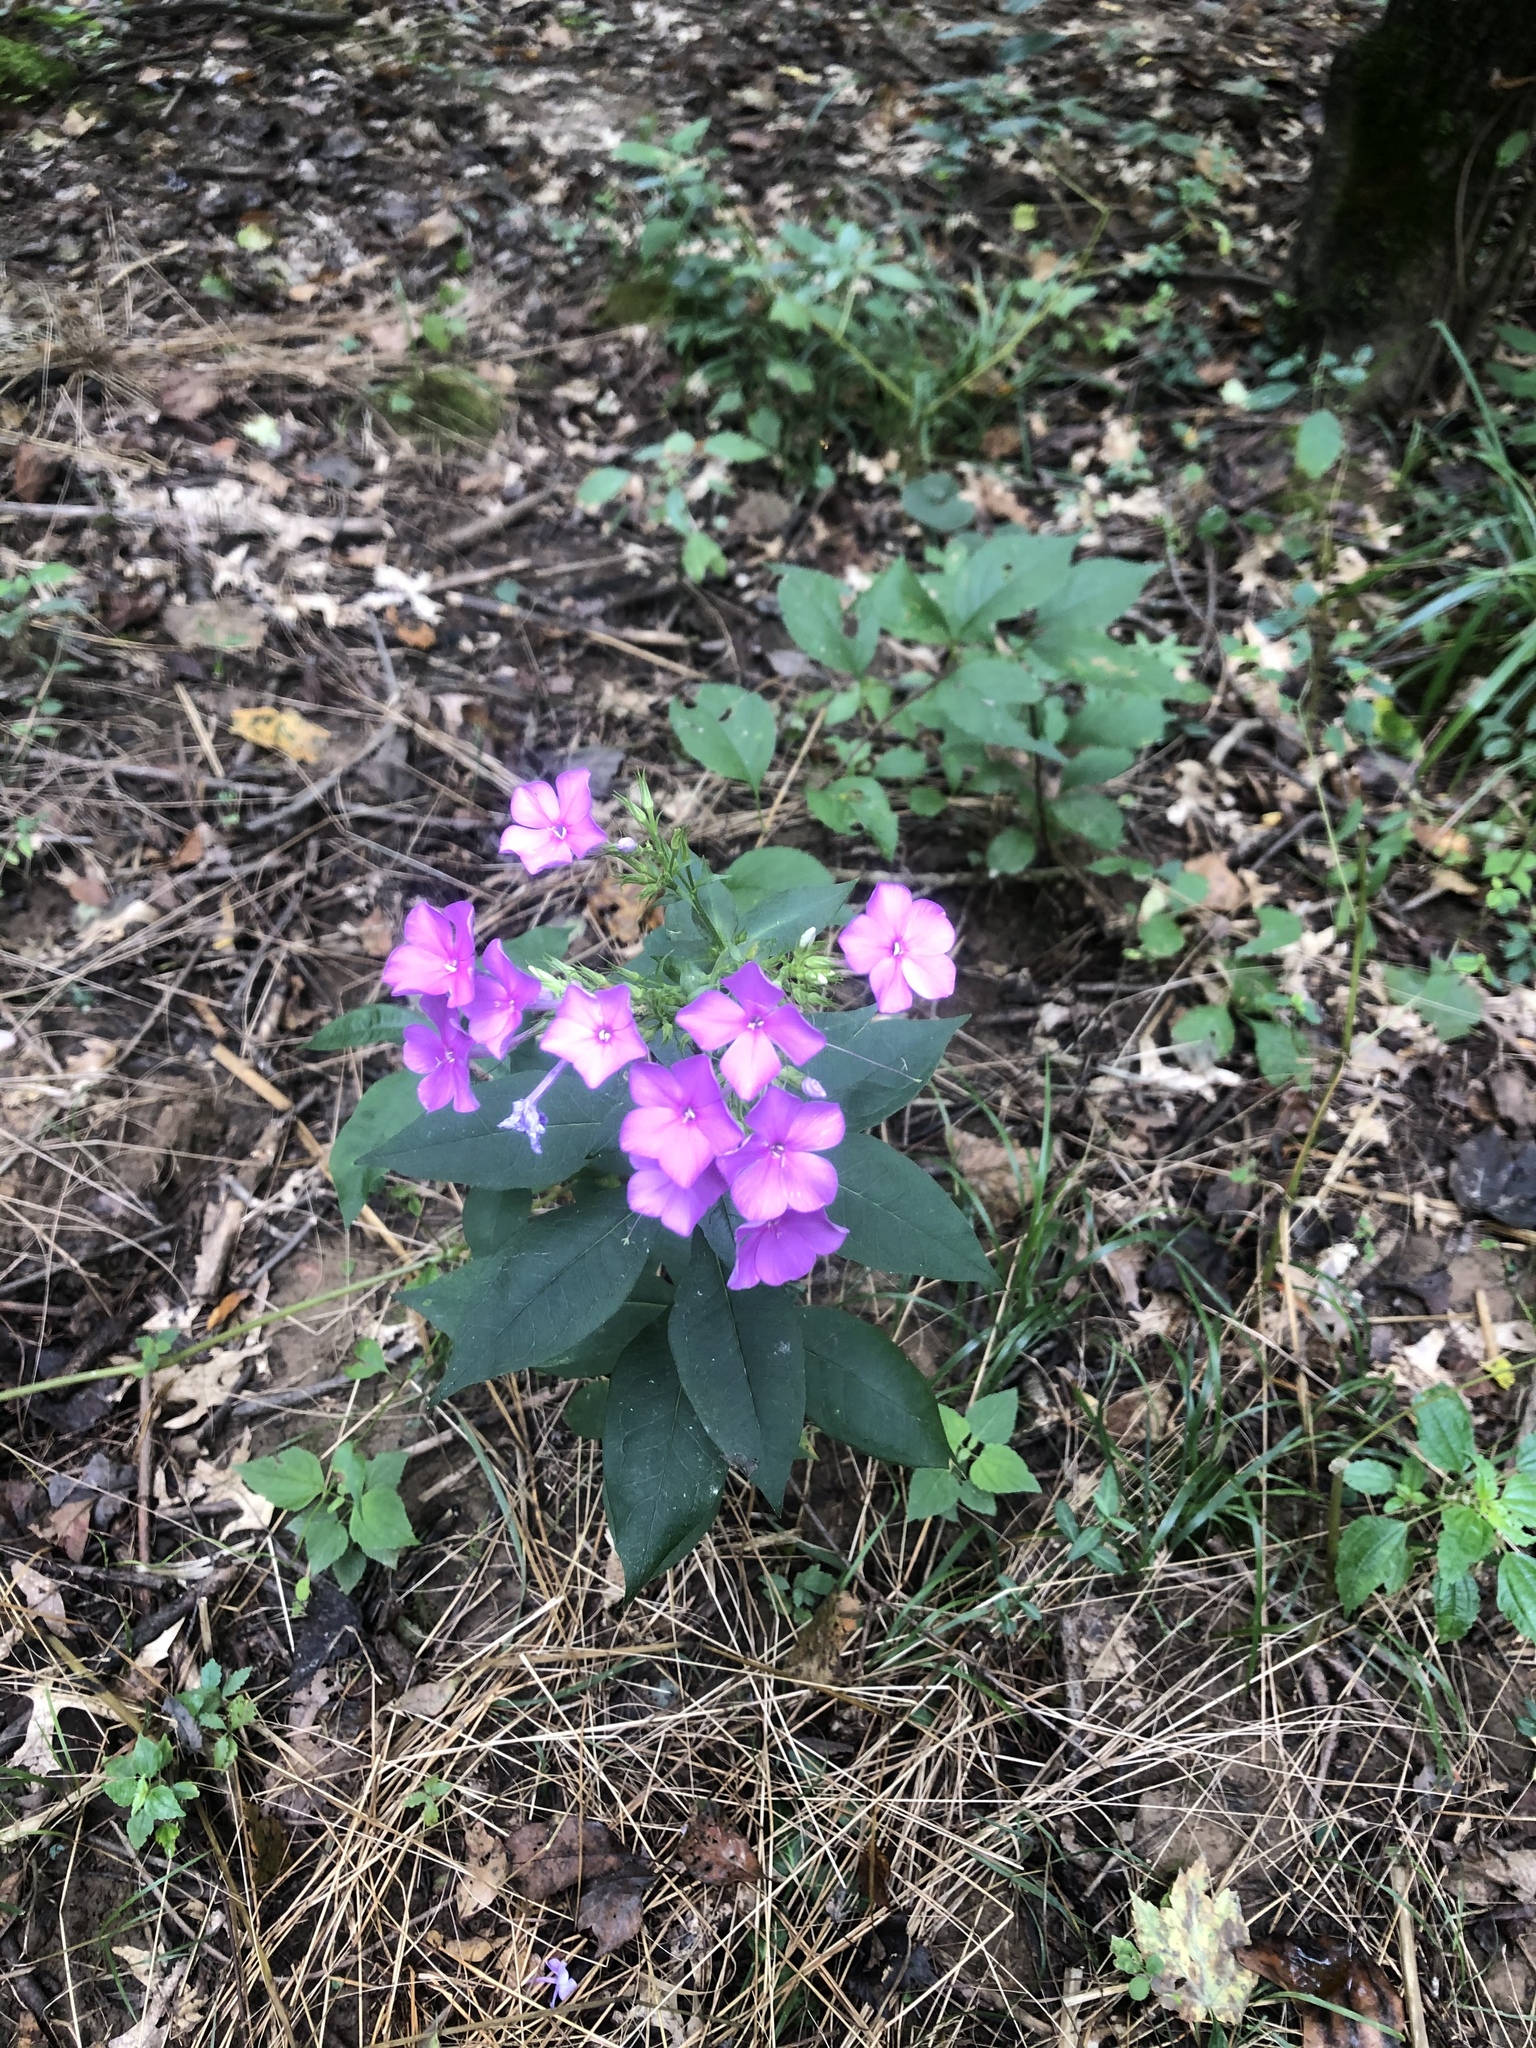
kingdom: Plantae
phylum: Tracheophyta
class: Magnoliopsida
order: Ericales
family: Polemoniaceae
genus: Phlox
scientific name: Phlox paniculata
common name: Fall phlox
